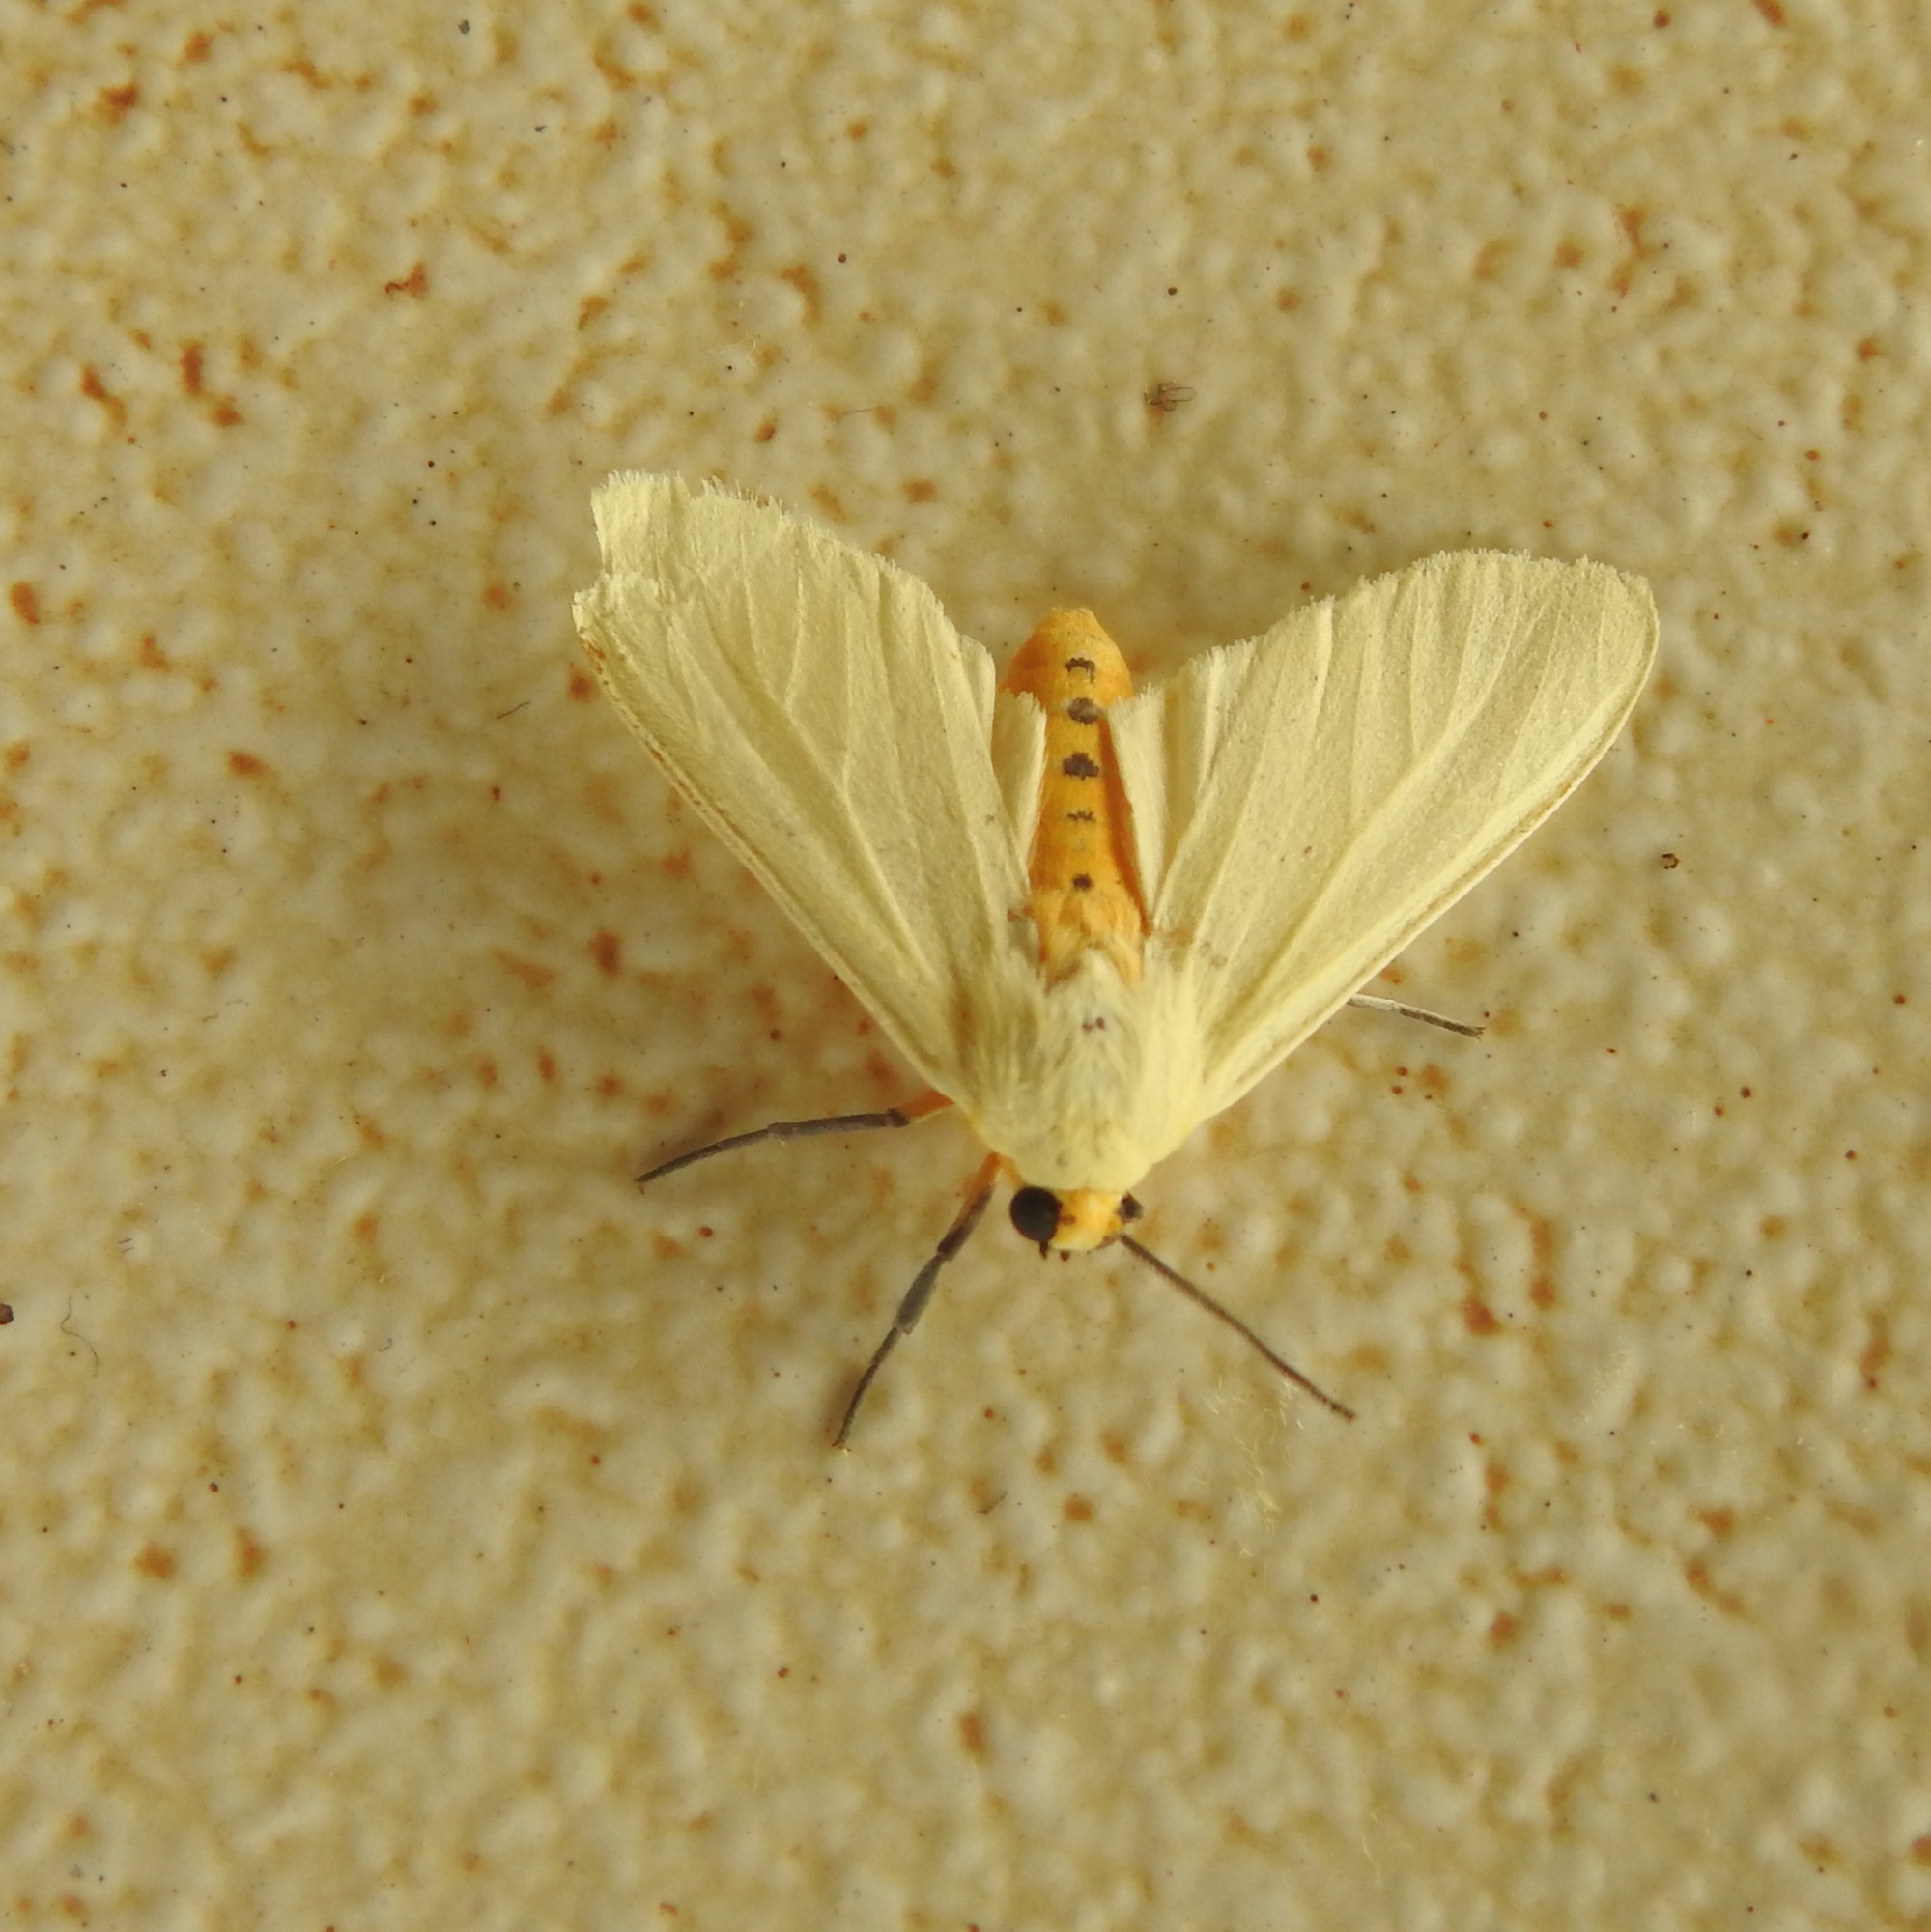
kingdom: Animalia
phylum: Arthropoda
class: Insecta
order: Lepidoptera
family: Erebidae
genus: Pareuchaetes
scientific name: Pareuchaetes pseudoinsulata
